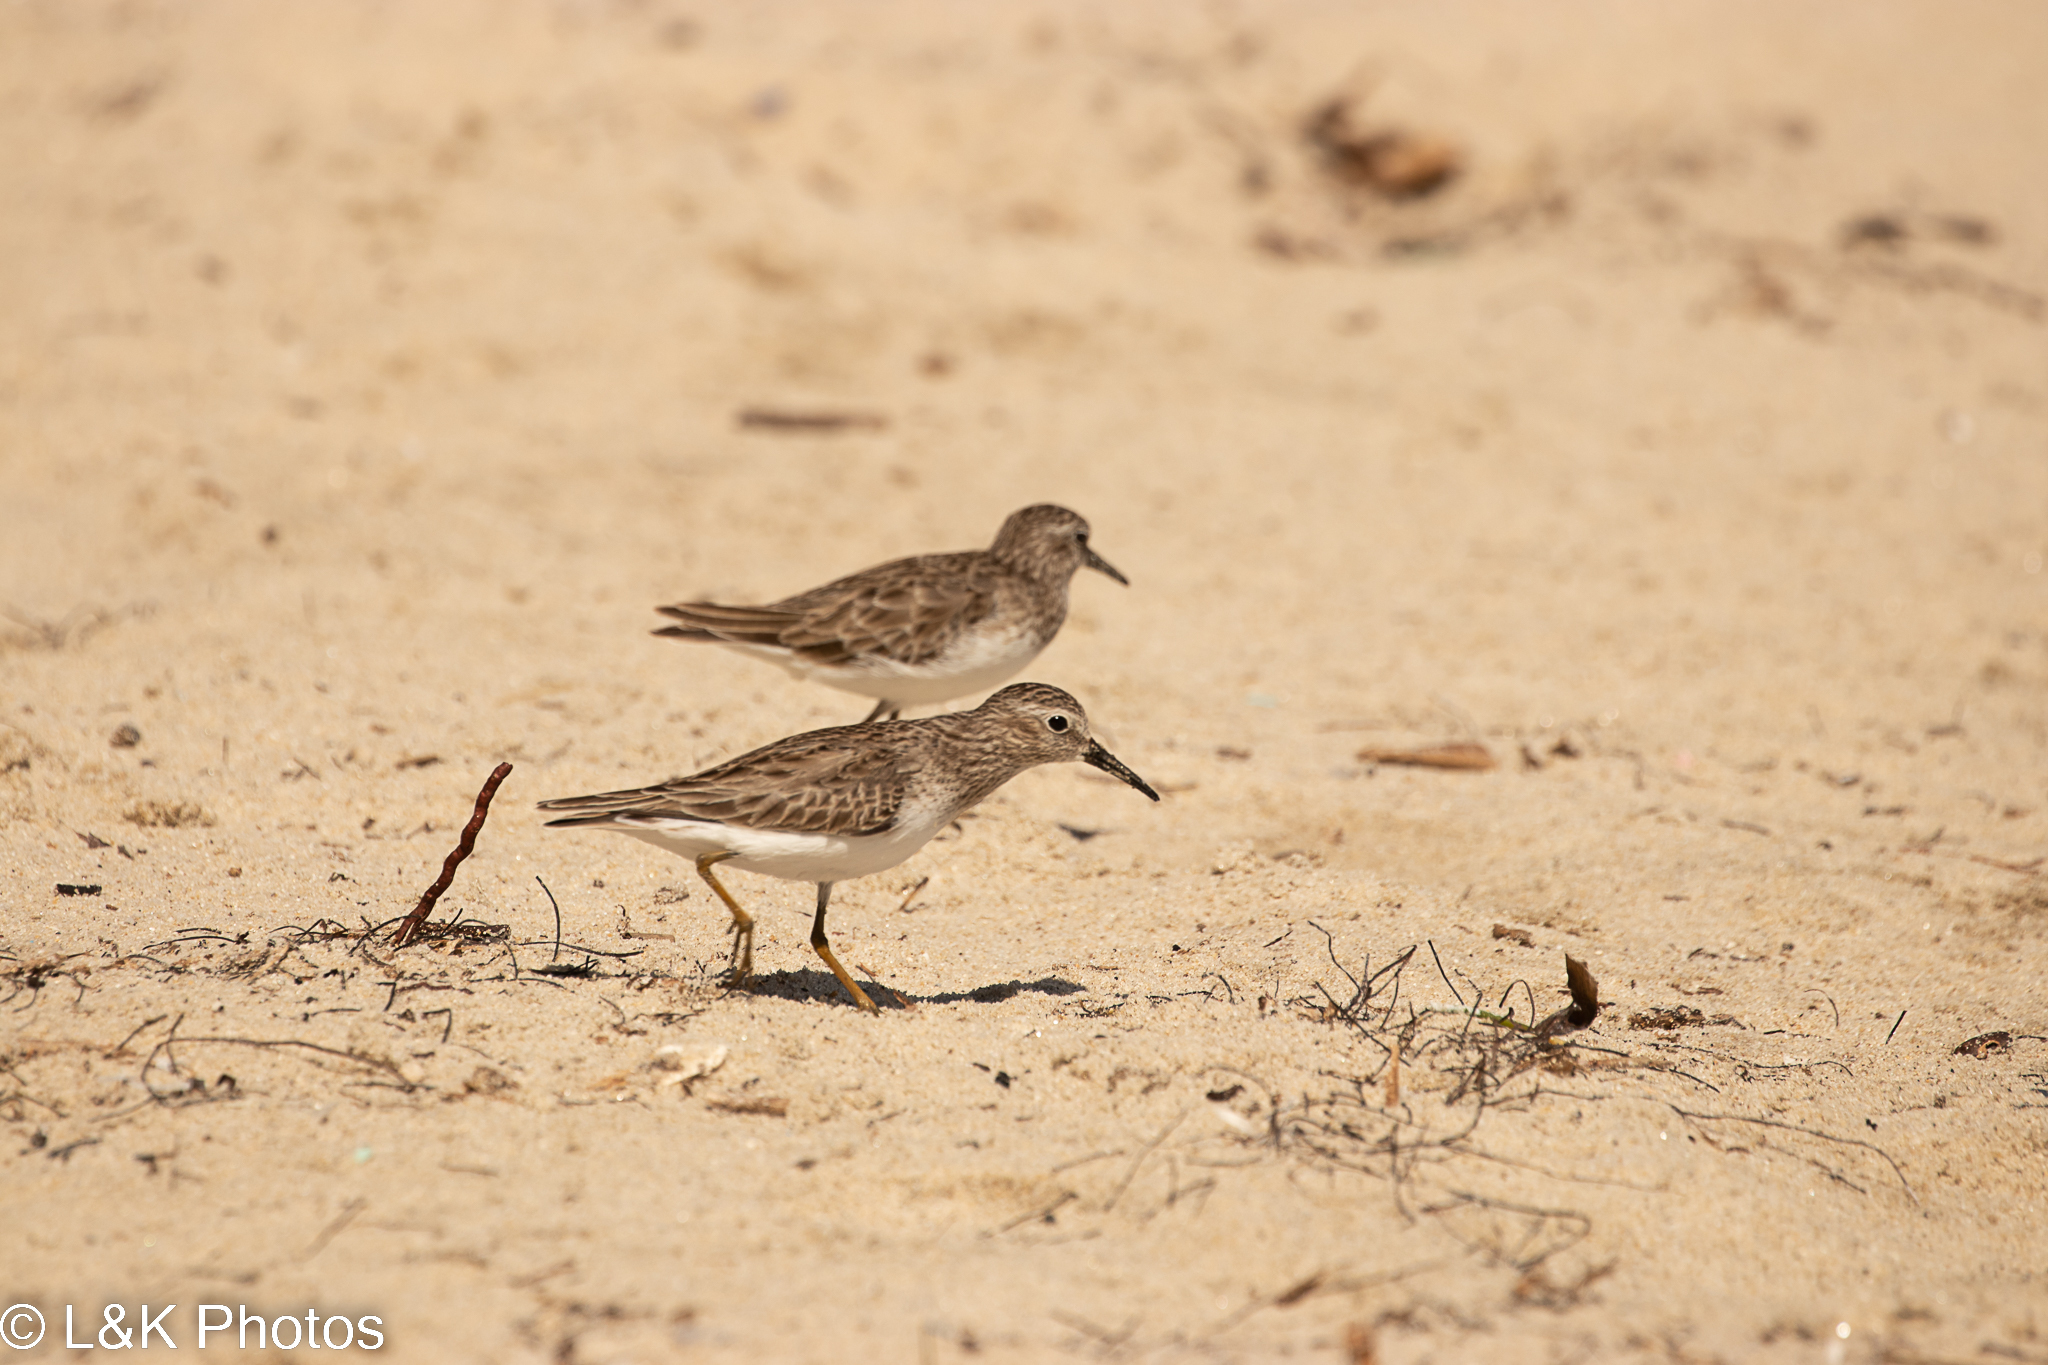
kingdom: Animalia
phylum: Chordata
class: Aves
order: Charadriiformes
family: Scolopacidae
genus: Calidris
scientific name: Calidris minutilla
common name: Least sandpiper
